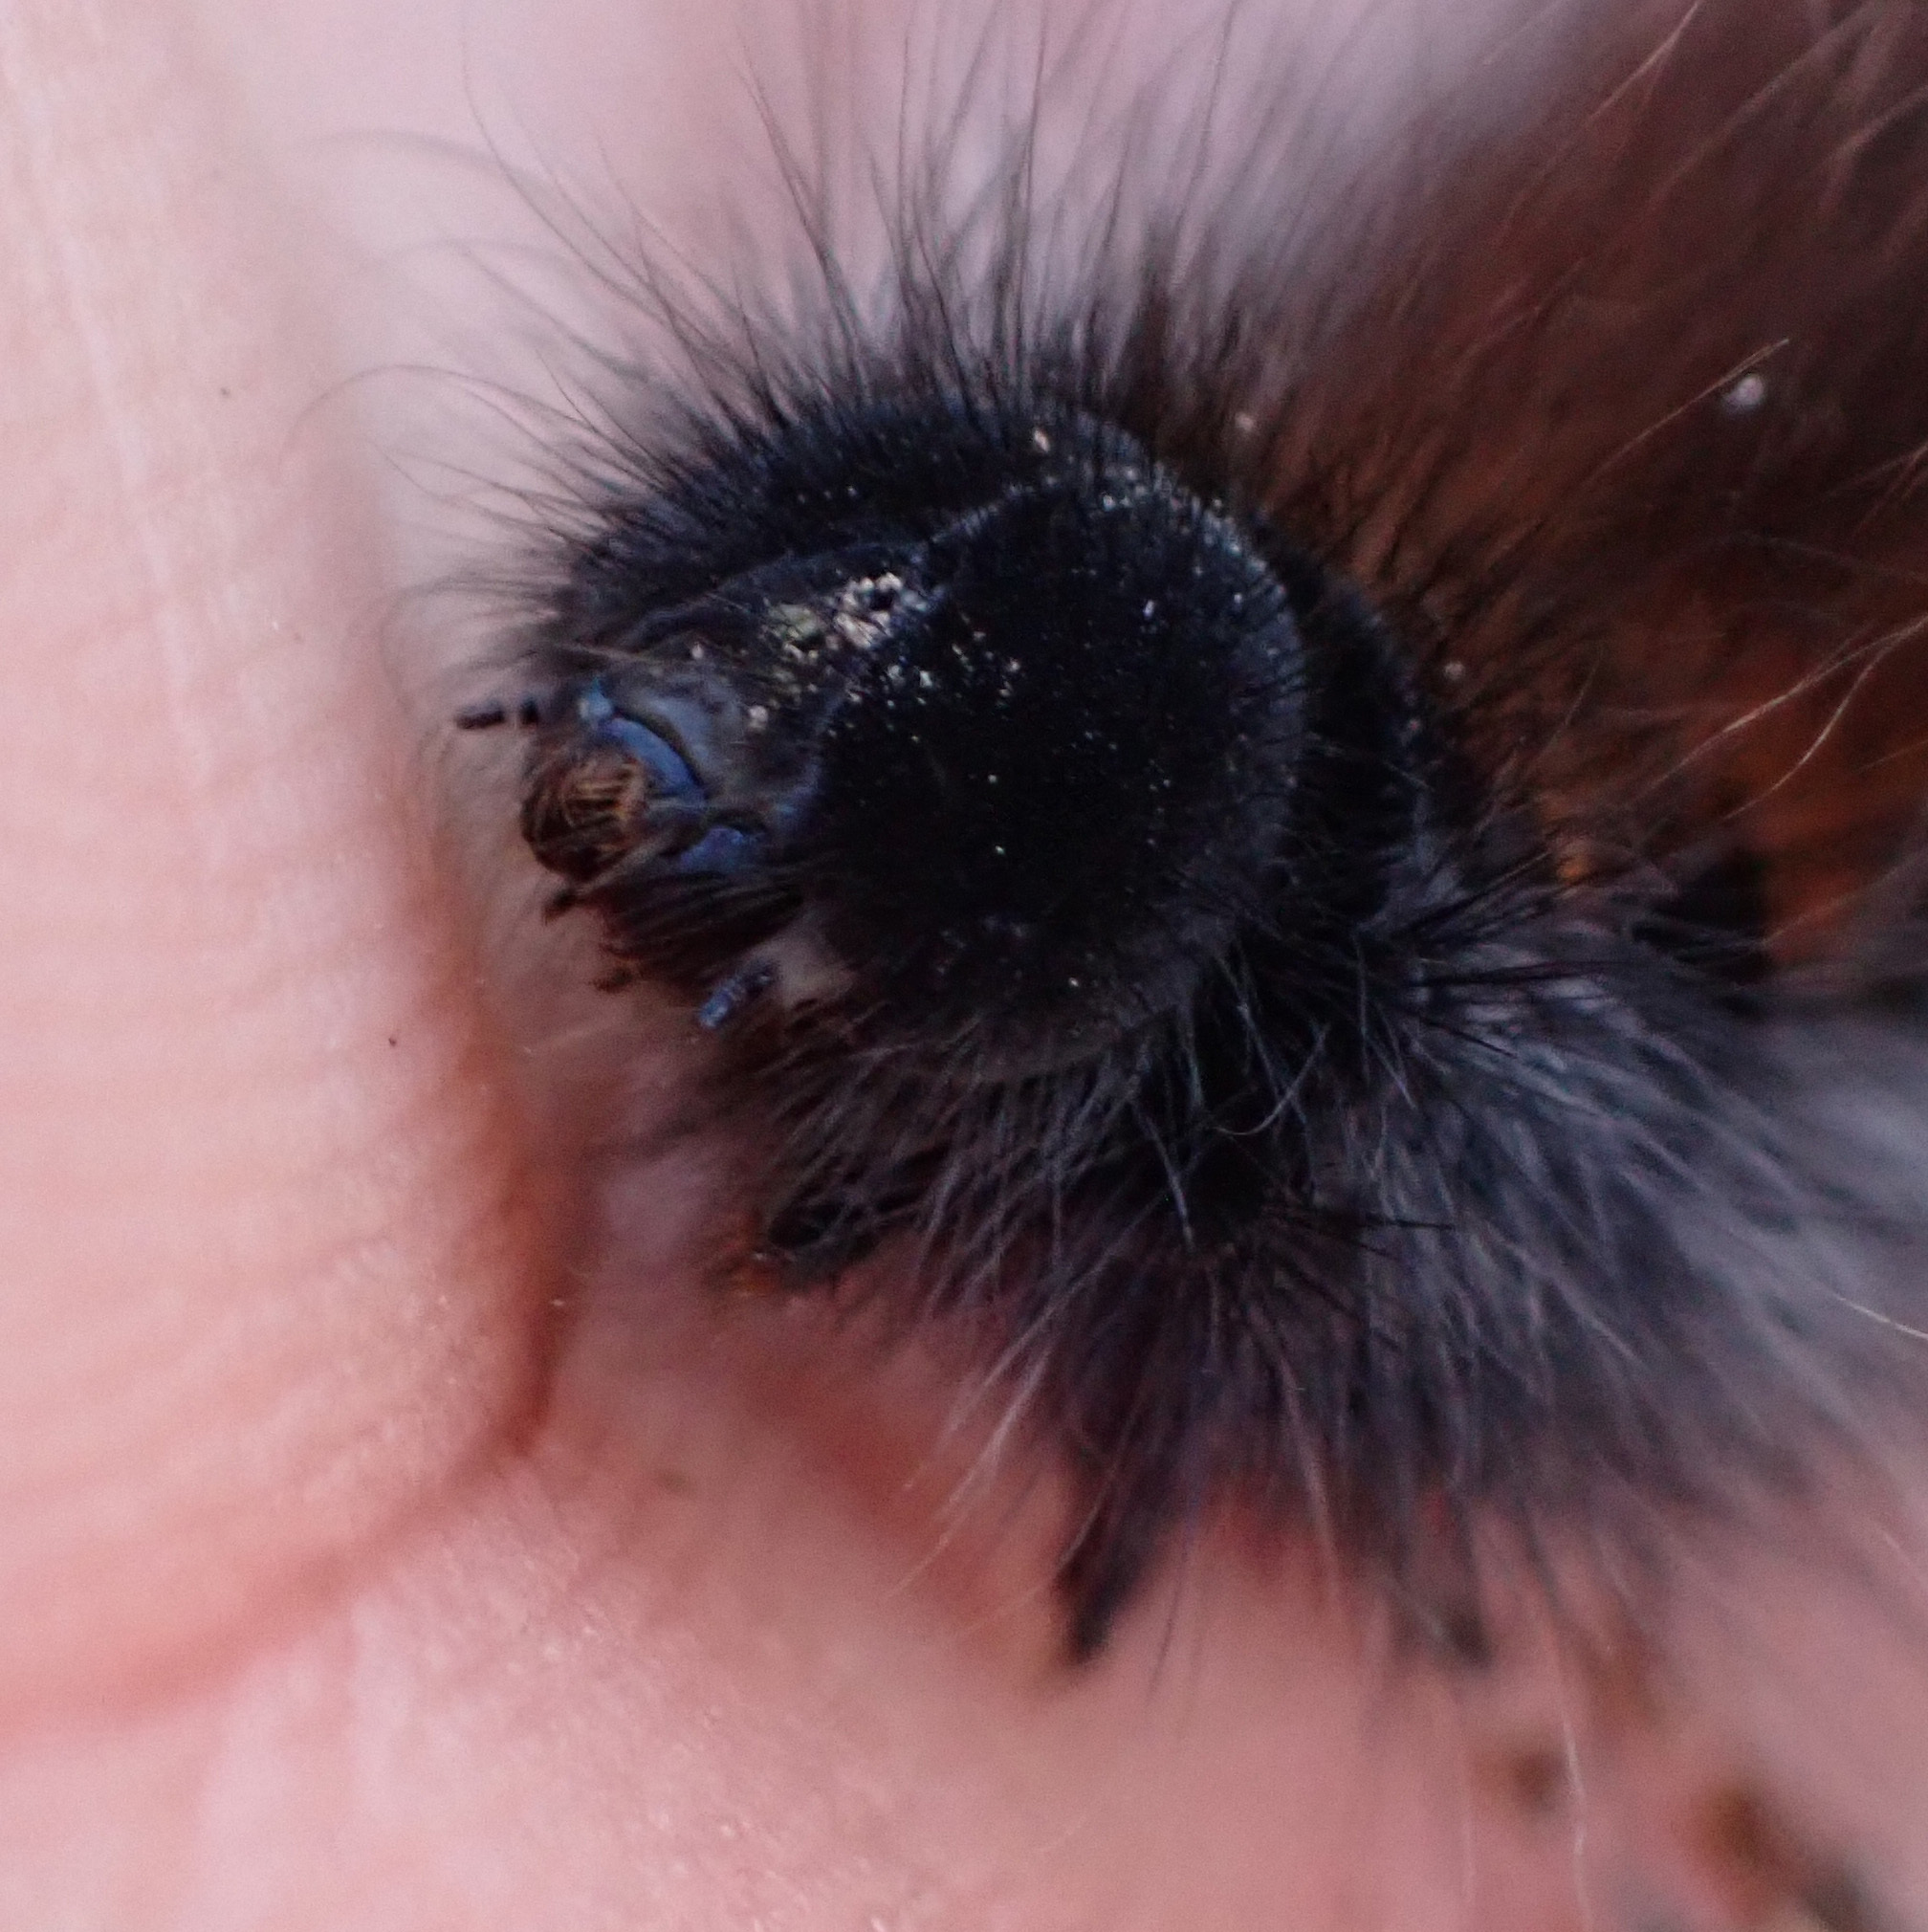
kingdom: Animalia
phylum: Arthropoda
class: Insecta
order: Lepidoptera
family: Lasiocampidae
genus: Macrothylacia
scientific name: Macrothylacia rubi
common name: Fox moth
